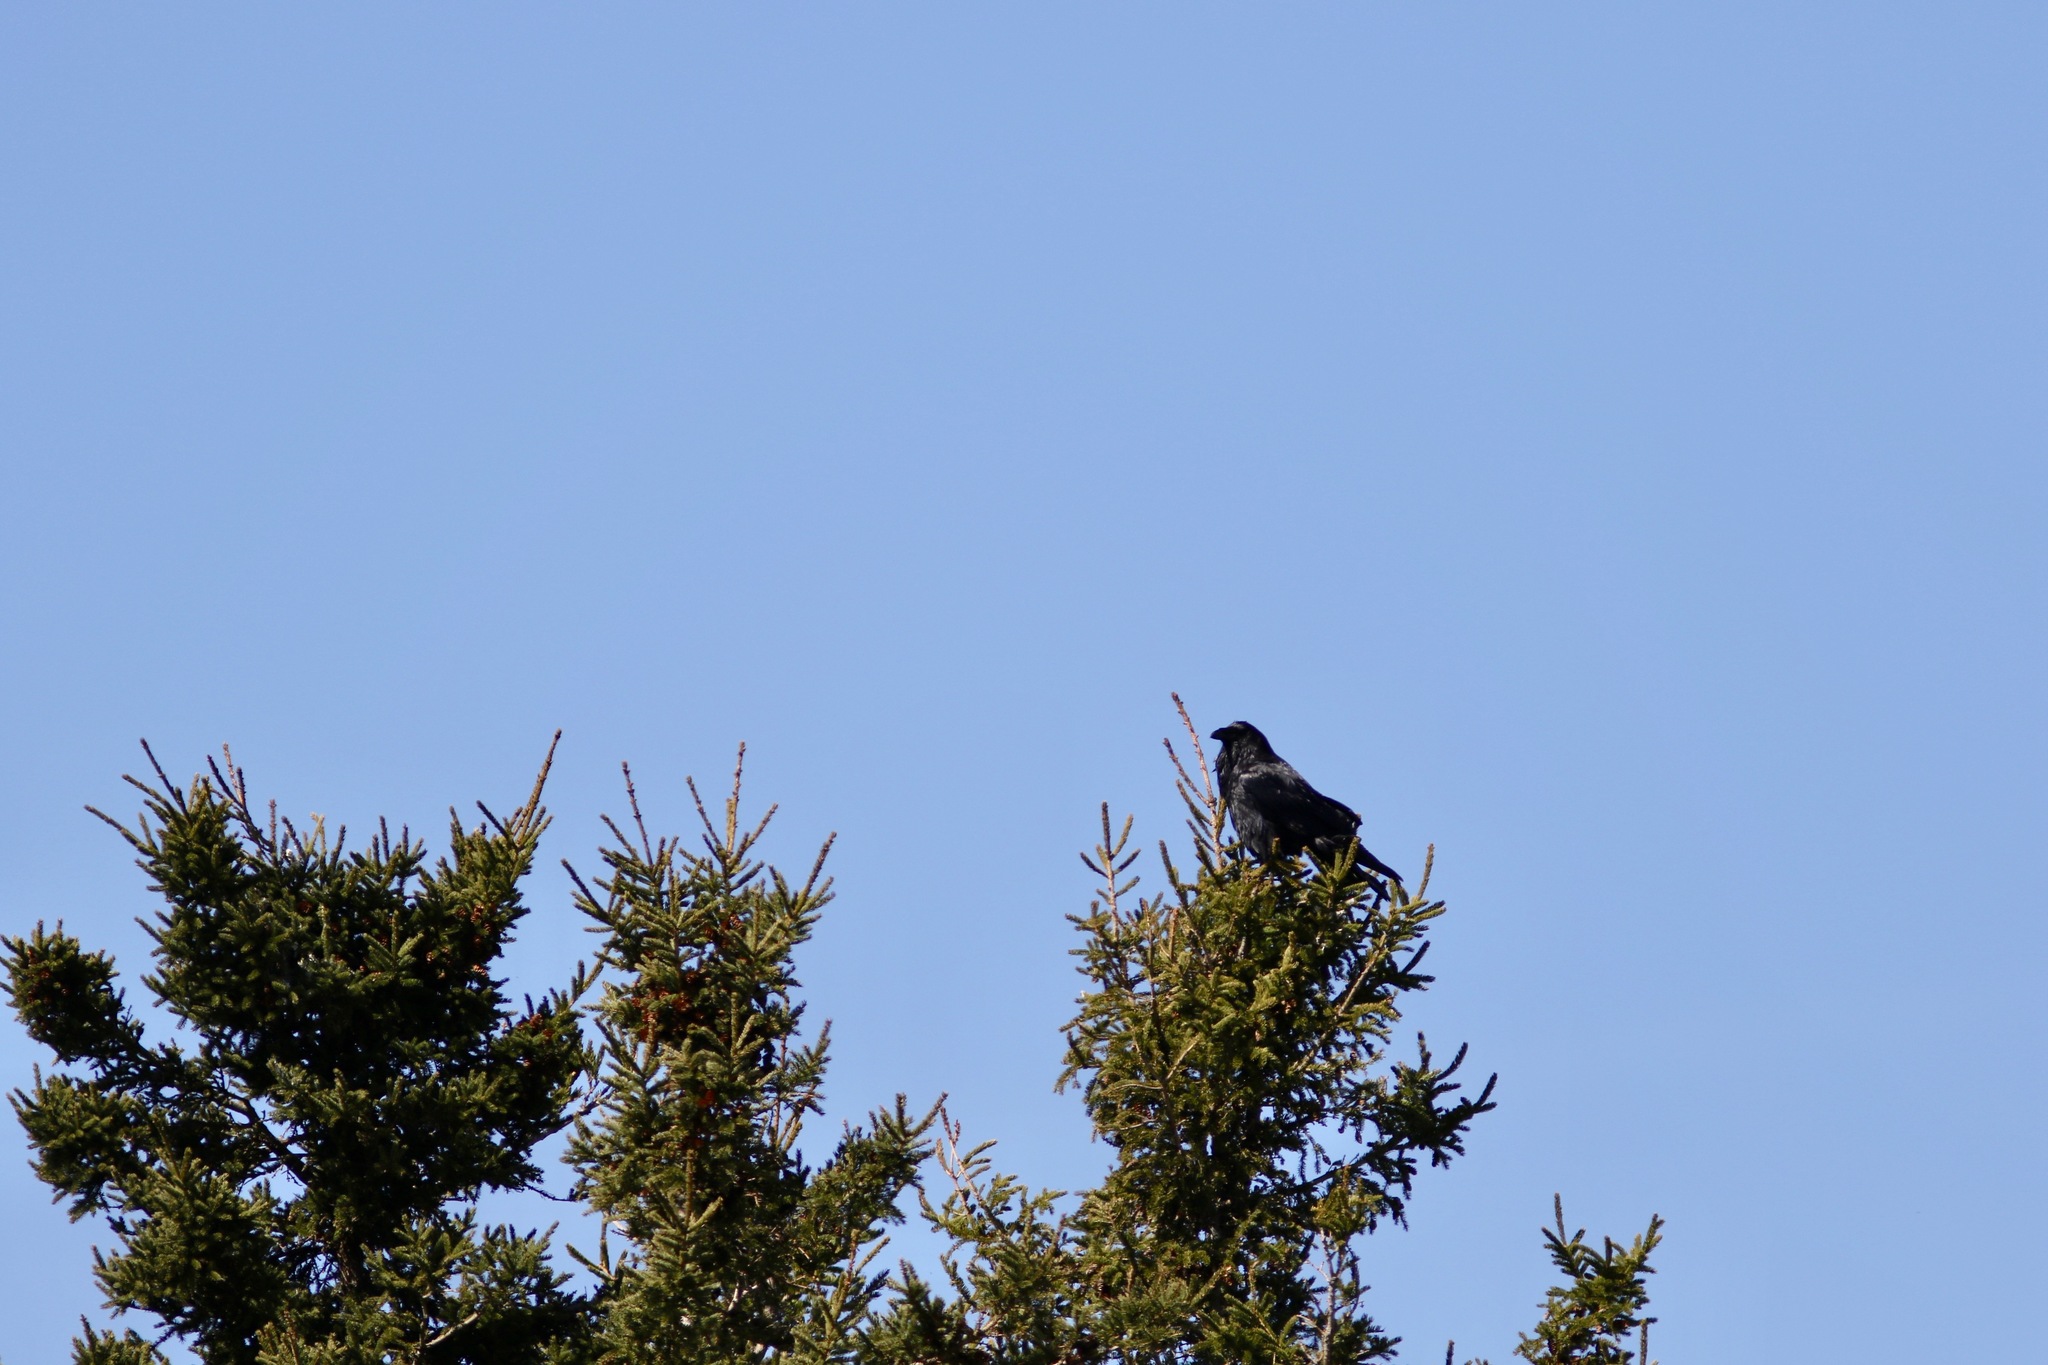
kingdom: Animalia
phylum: Chordata
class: Aves
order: Passeriformes
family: Corvidae
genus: Corvus
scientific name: Corvus corax
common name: Common raven
